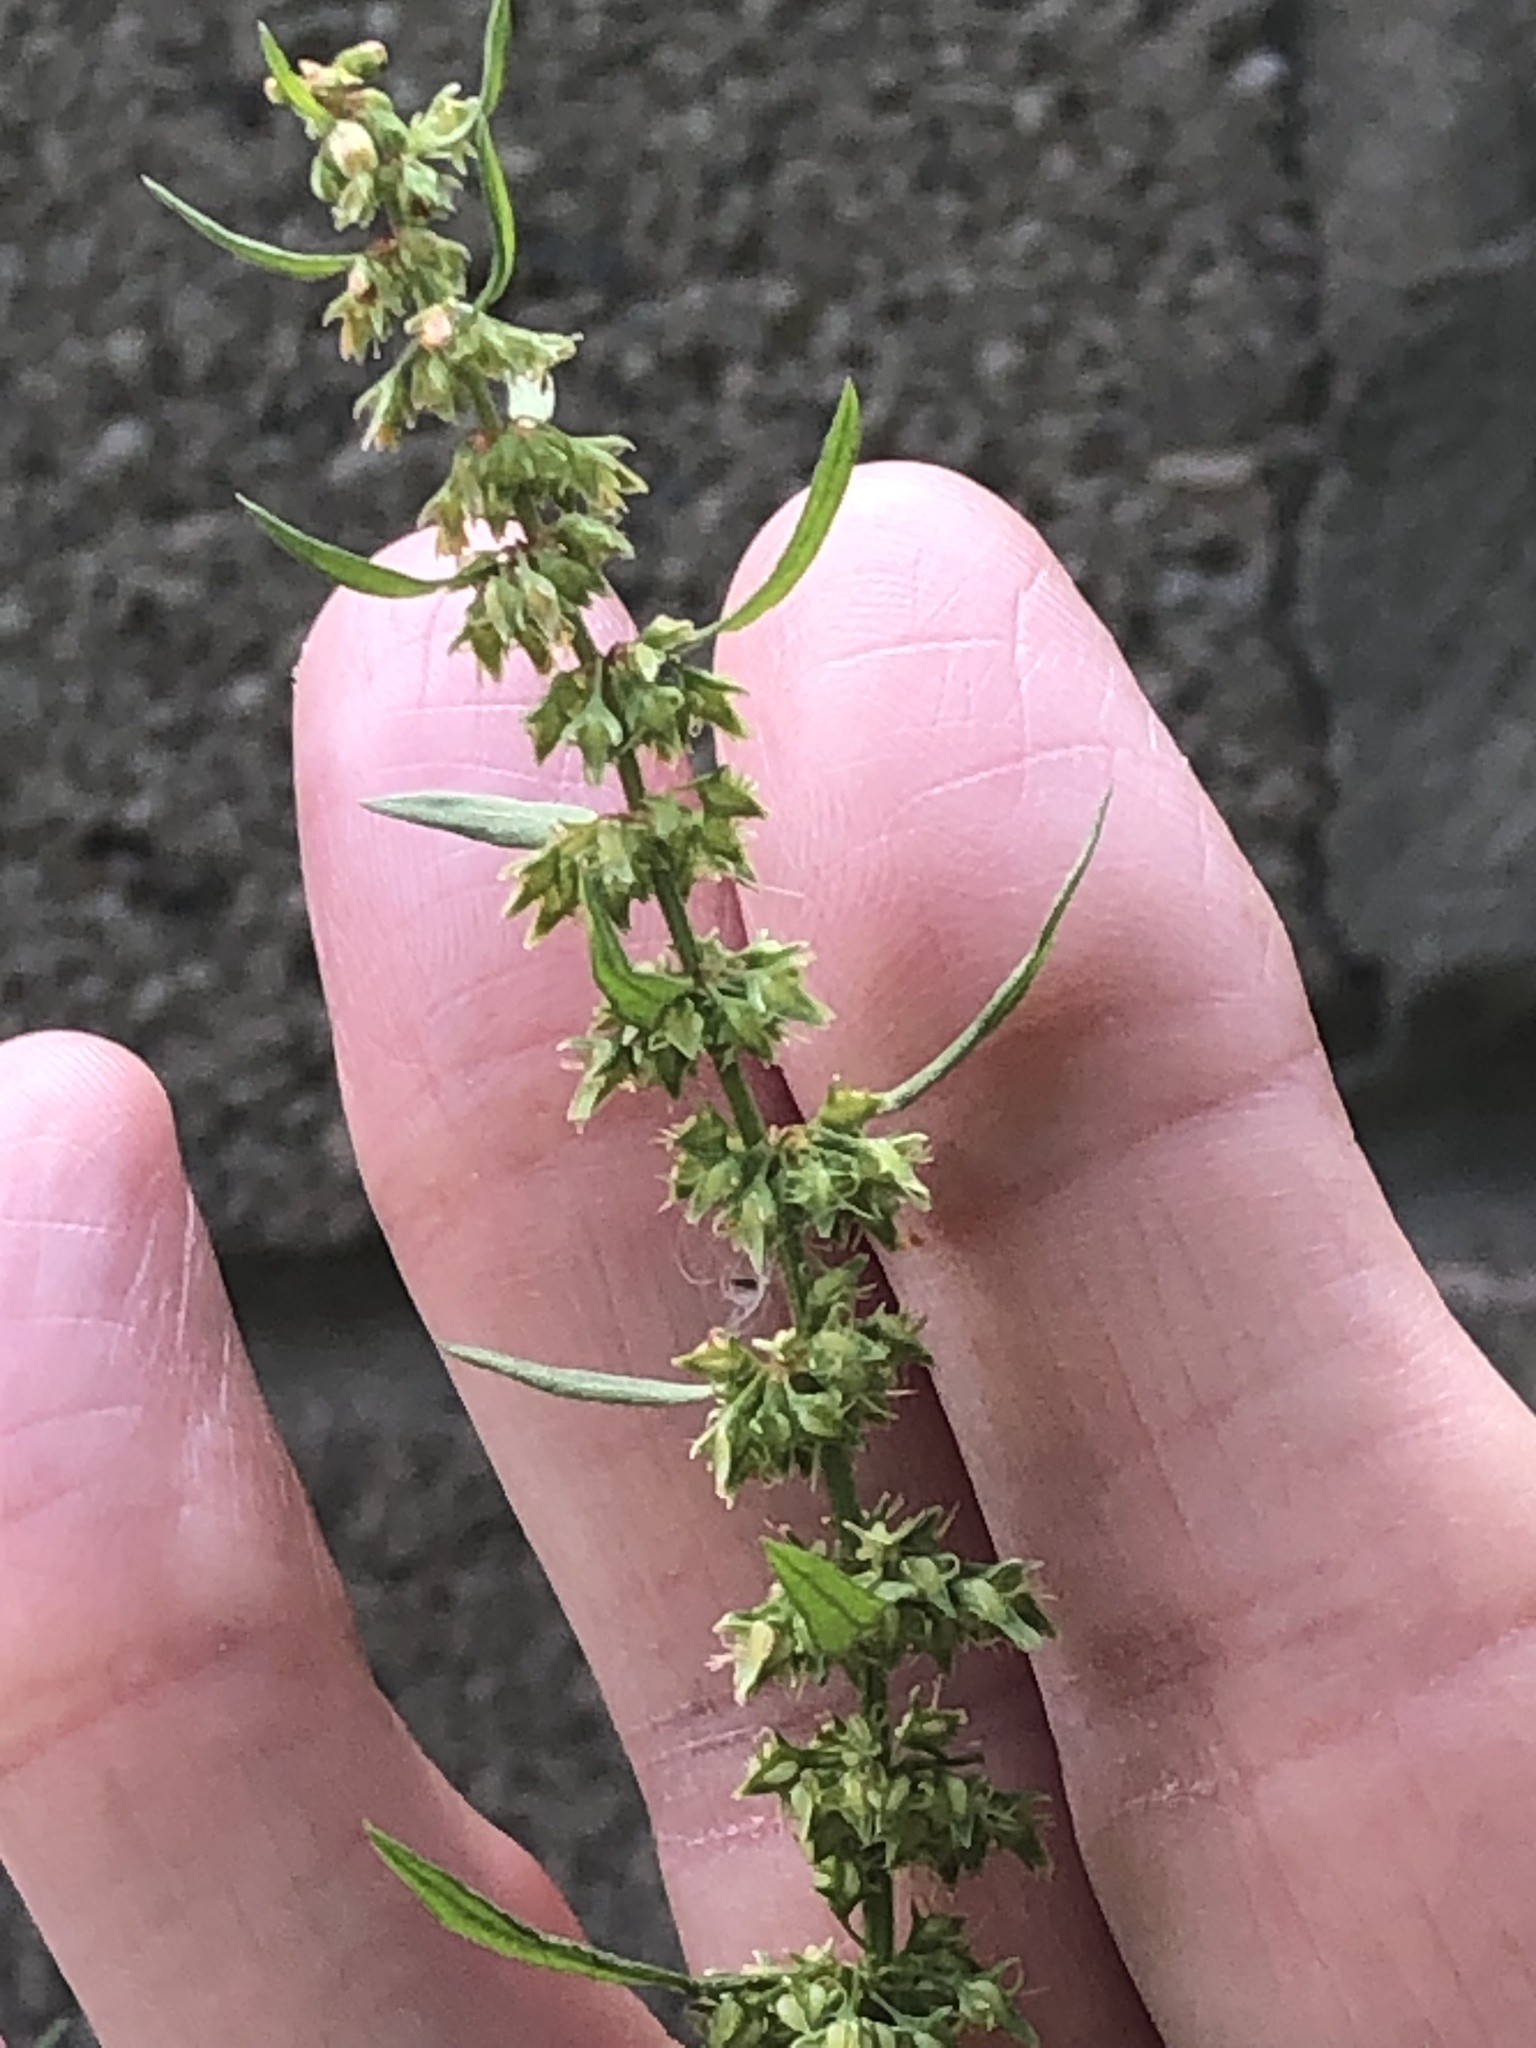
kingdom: Plantae
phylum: Tracheophyta
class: Magnoliopsida
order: Caryophyllales
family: Polygonaceae
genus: Rumex
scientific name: Rumex palustris
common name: Marsh dock
